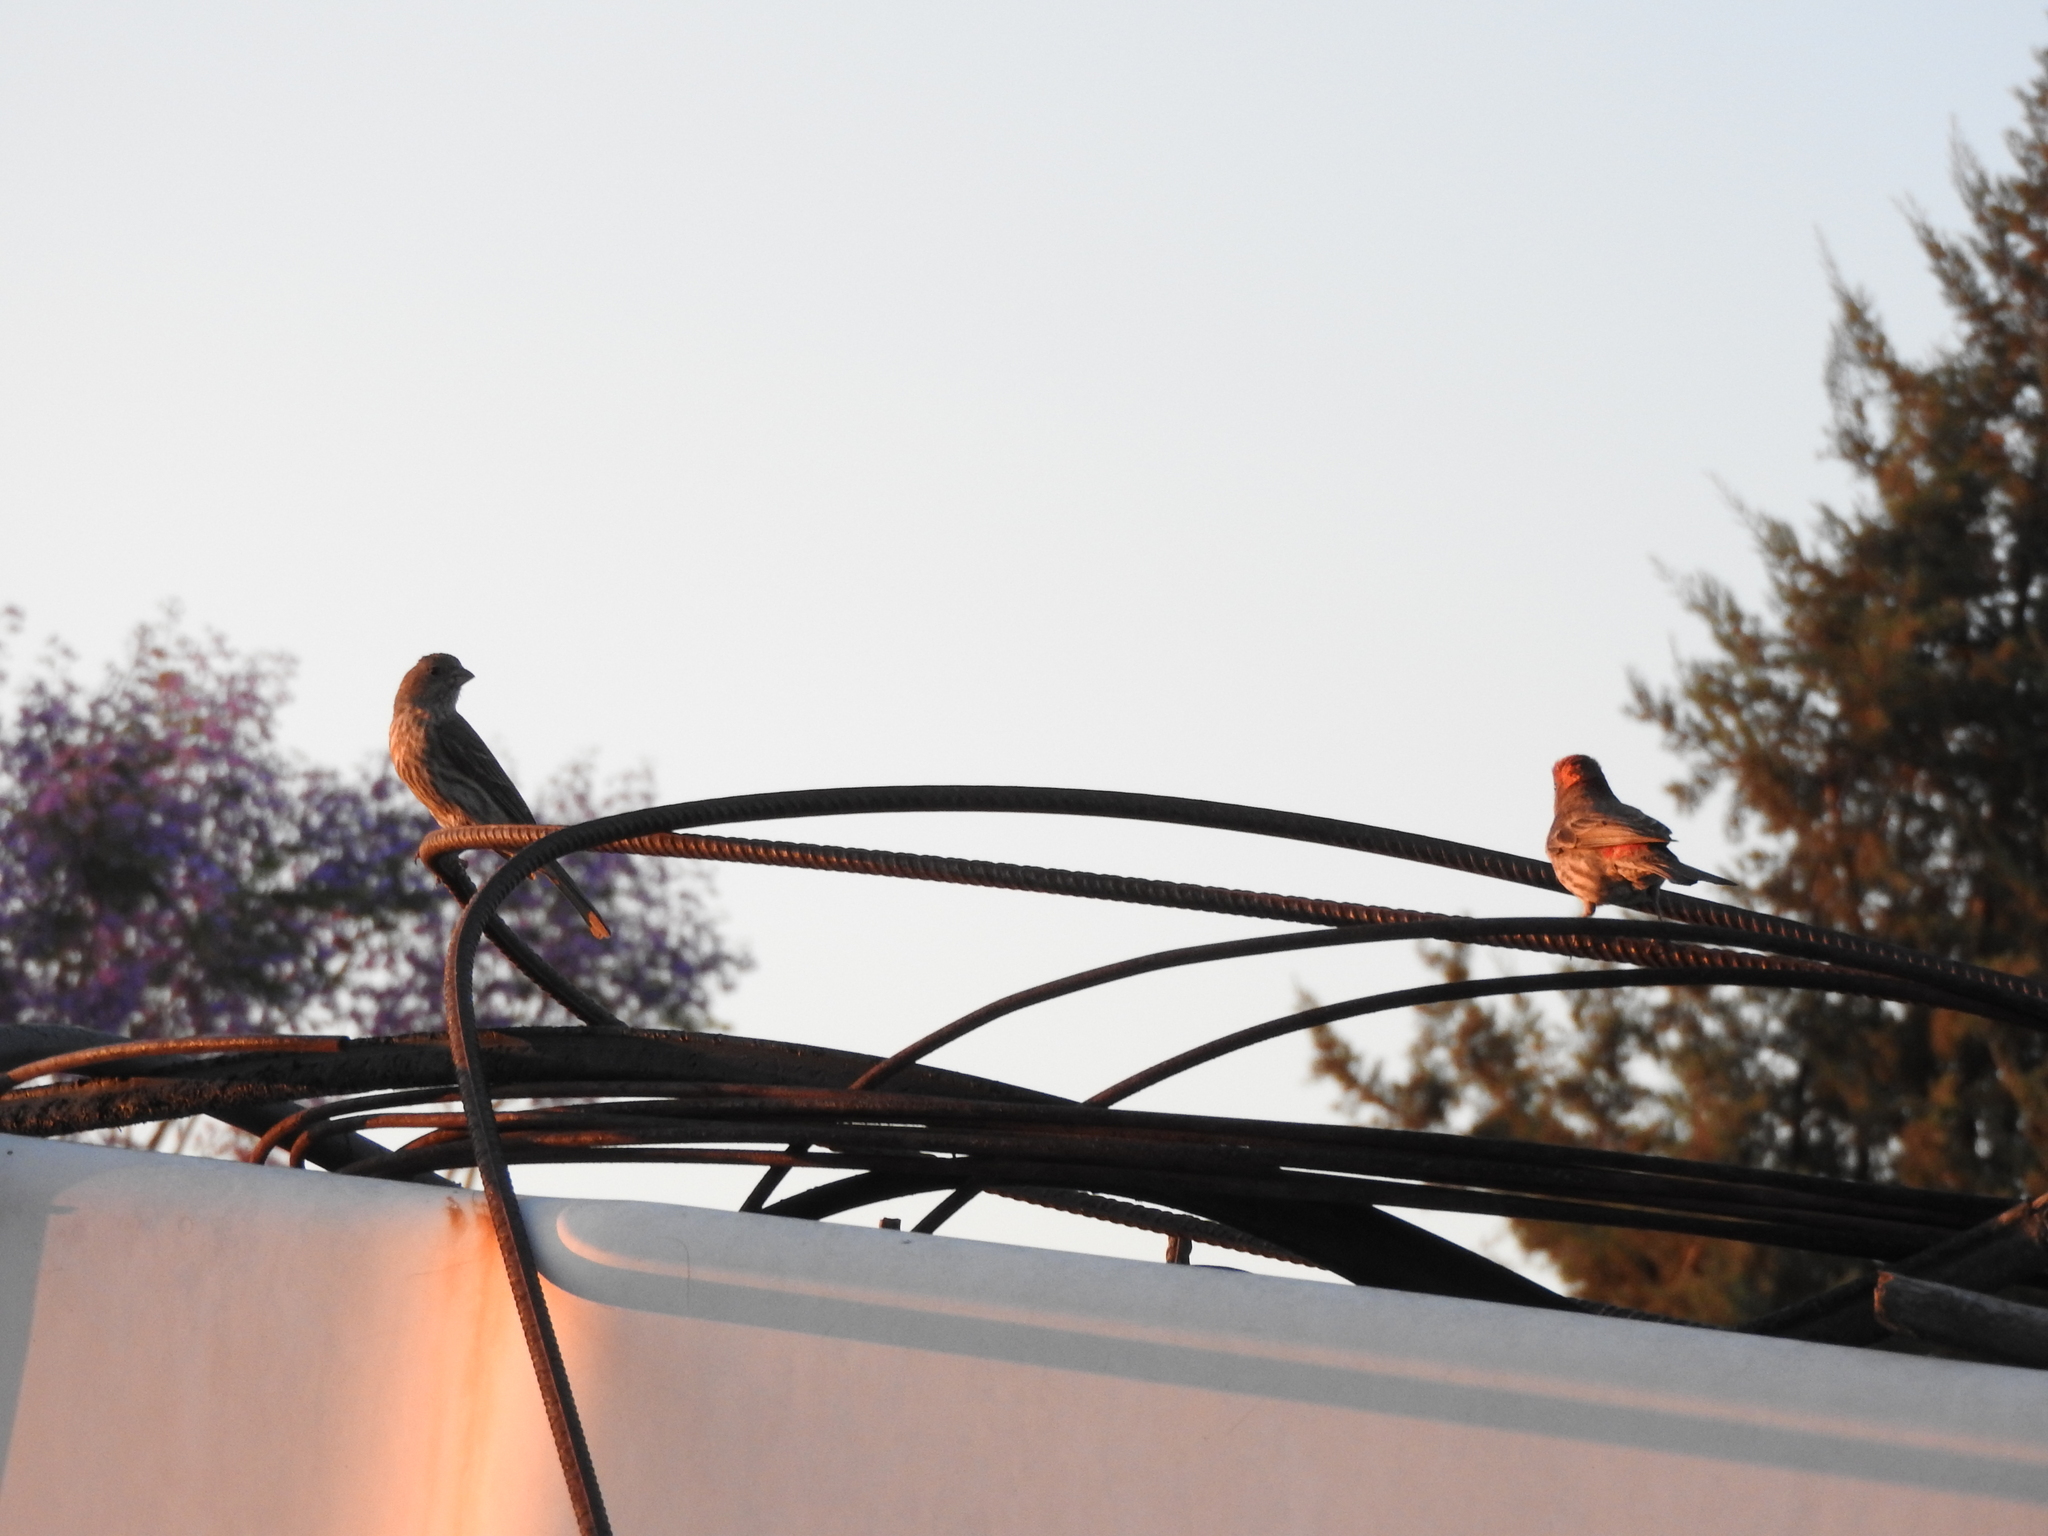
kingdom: Animalia
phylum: Chordata
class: Aves
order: Passeriformes
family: Fringillidae
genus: Haemorhous
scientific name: Haemorhous mexicanus
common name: House finch
